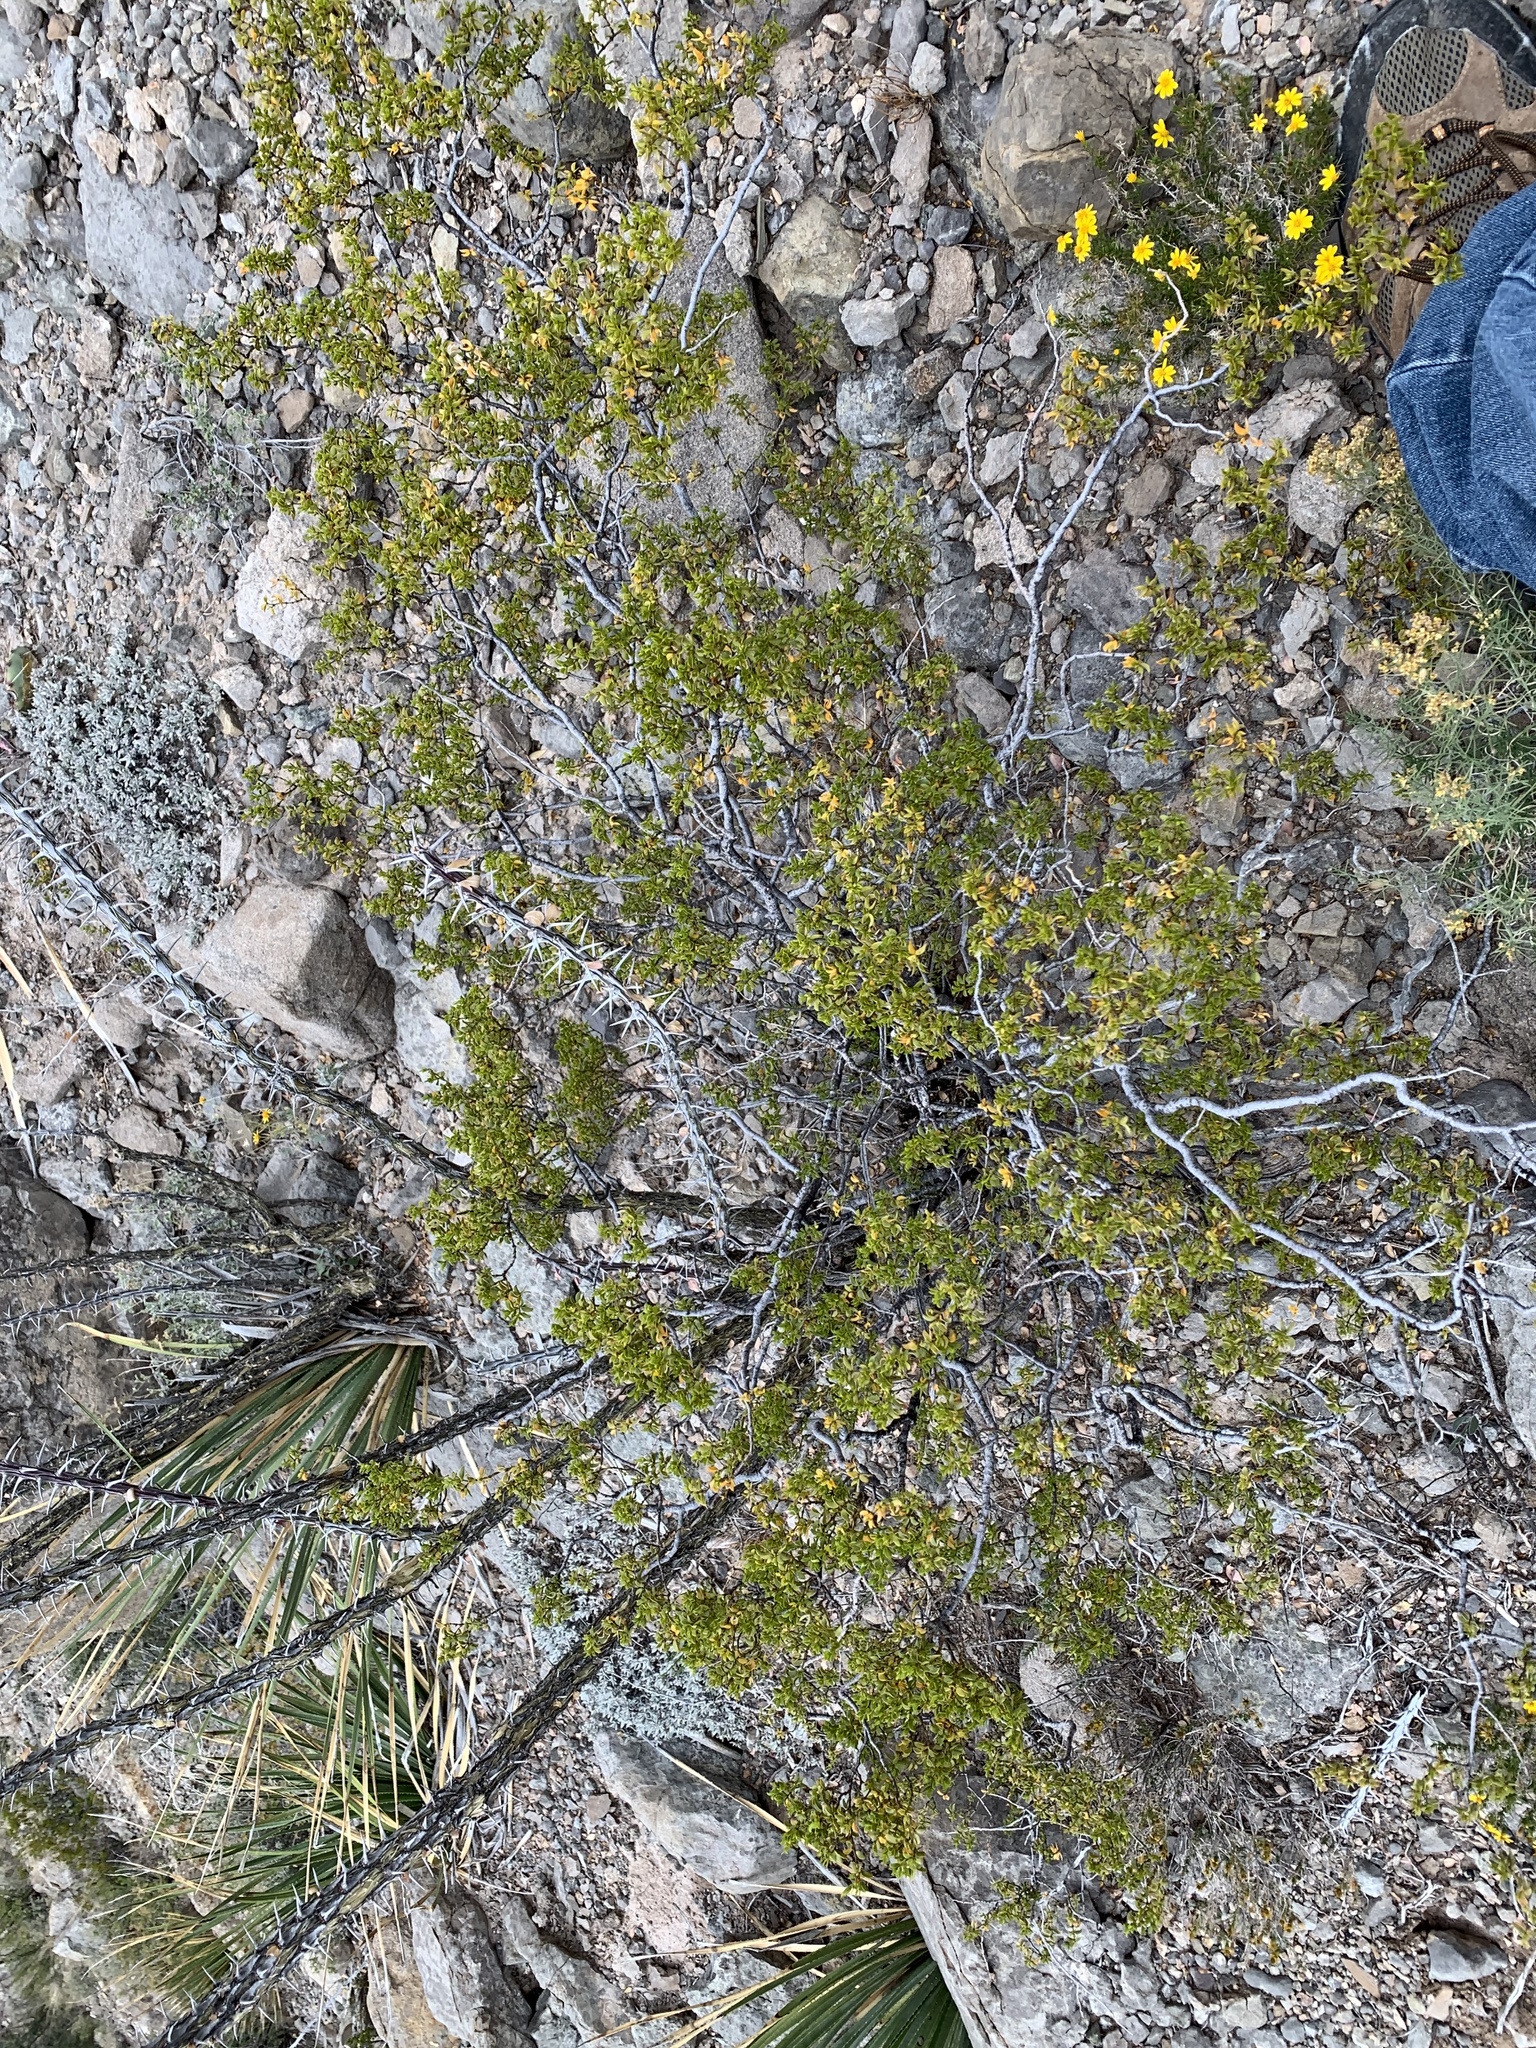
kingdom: Plantae
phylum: Tracheophyta
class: Magnoliopsida
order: Zygophyllales
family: Zygophyllaceae
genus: Larrea
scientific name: Larrea tridentata
